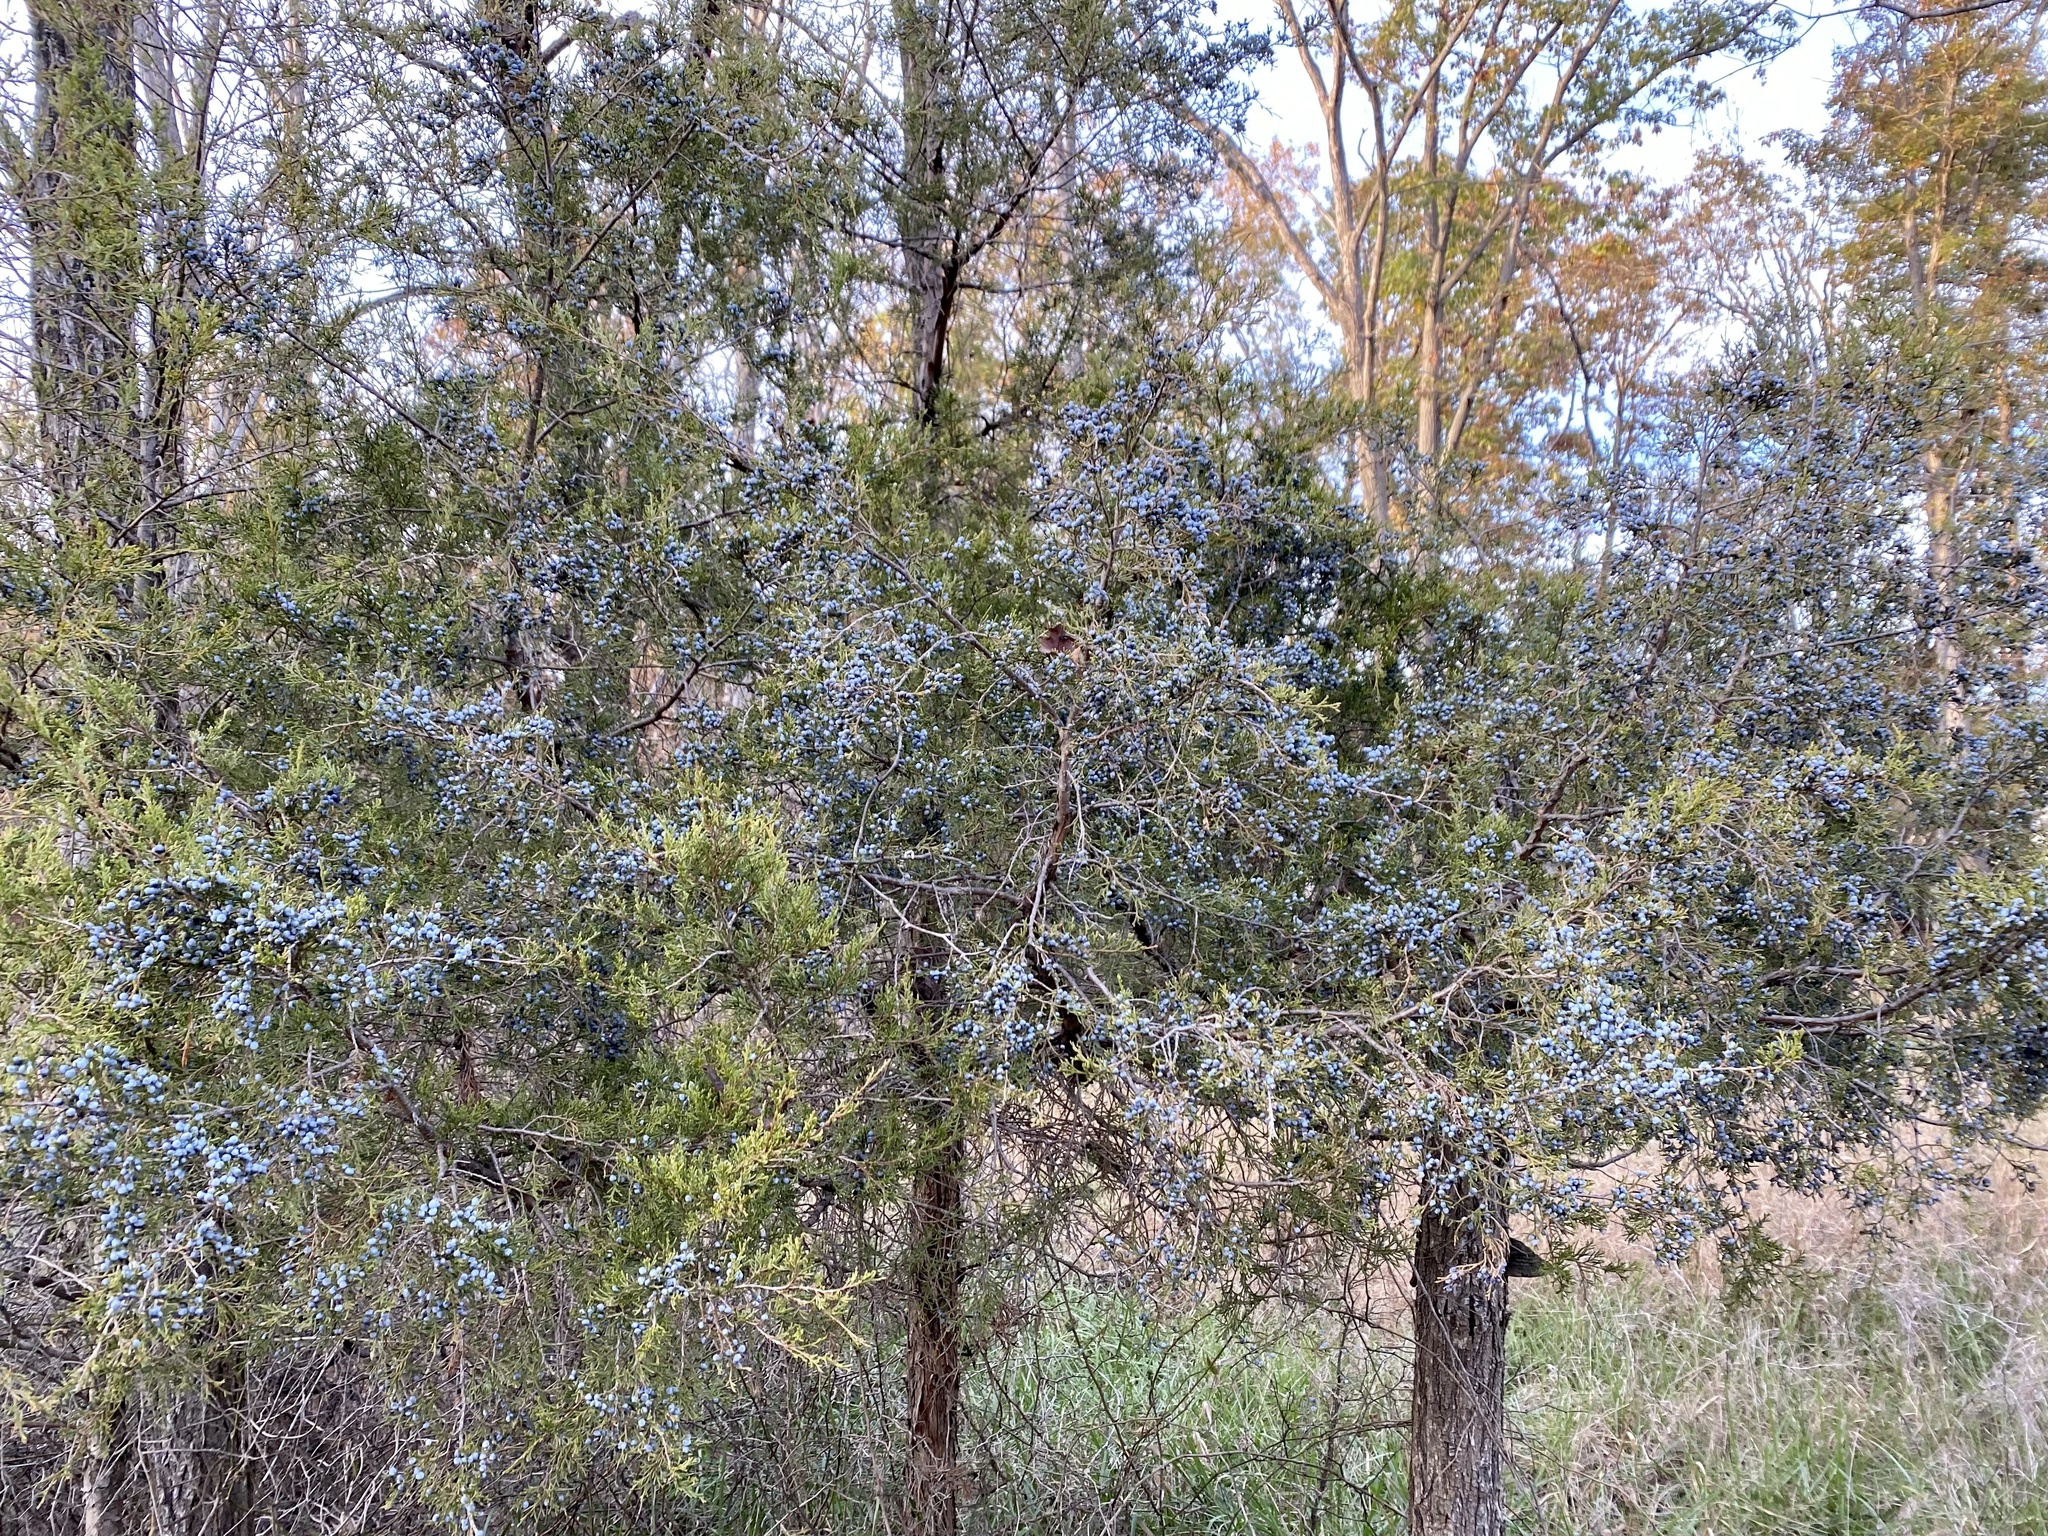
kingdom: Plantae
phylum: Tracheophyta
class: Pinopsida
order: Pinales
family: Cupressaceae
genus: Juniperus
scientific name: Juniperus virginiana
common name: Red juniper
